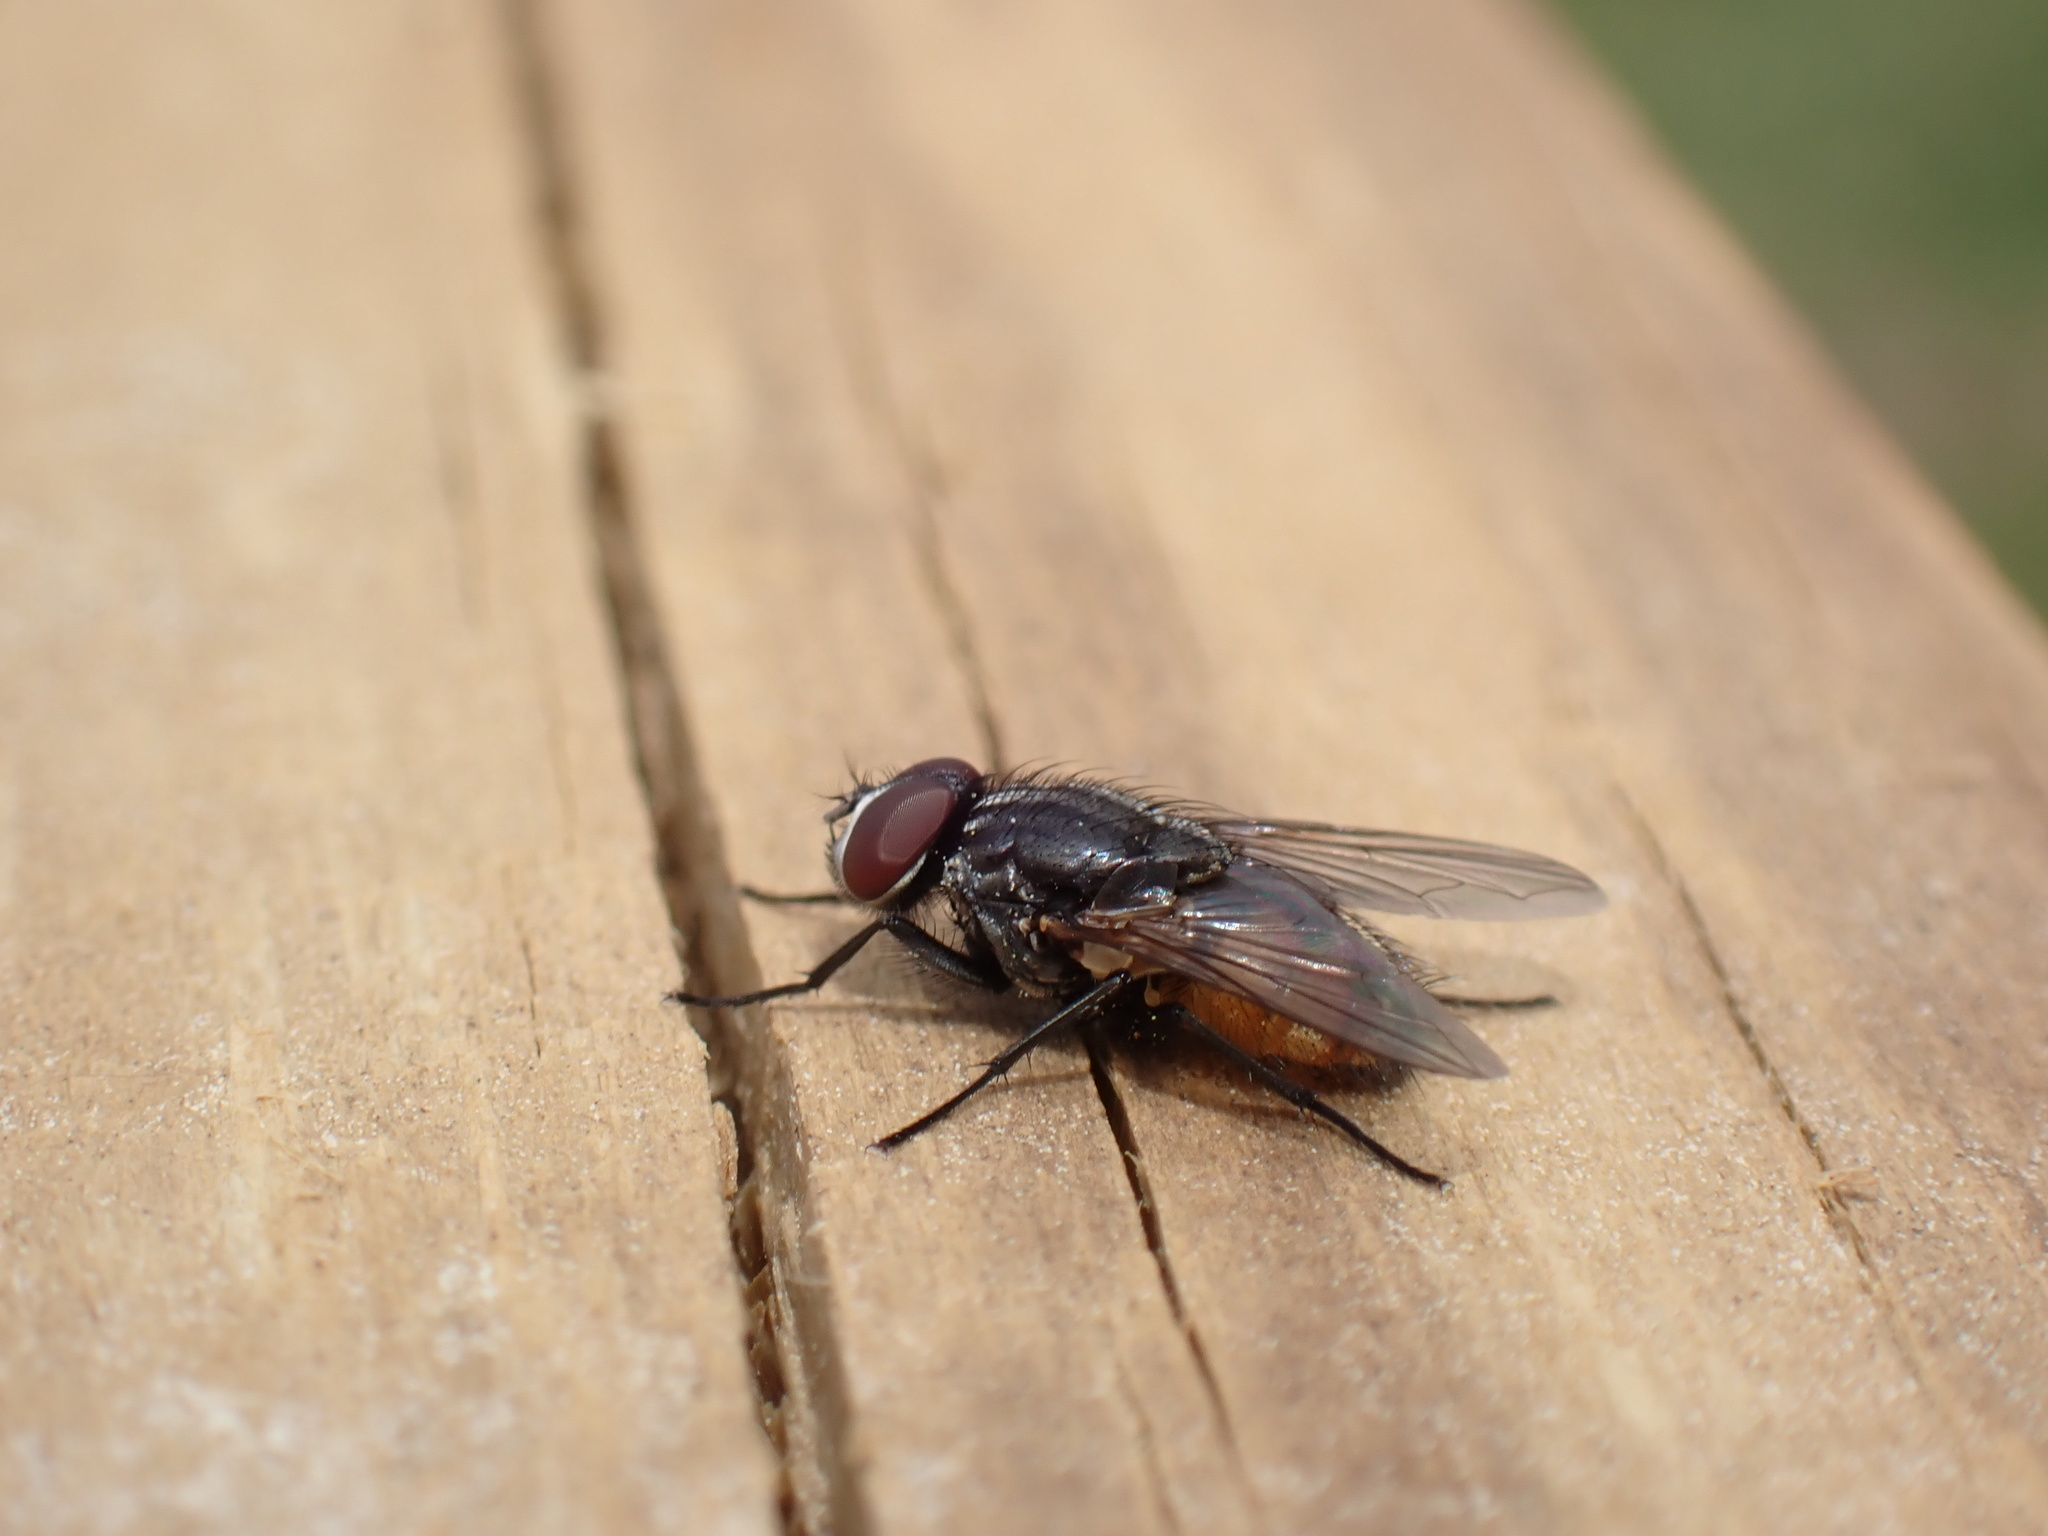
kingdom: Animalia
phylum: Arthropoda
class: Insecta
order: Diptera
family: Muscidae
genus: Musca
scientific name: Musca autumnalis
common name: Face fly
